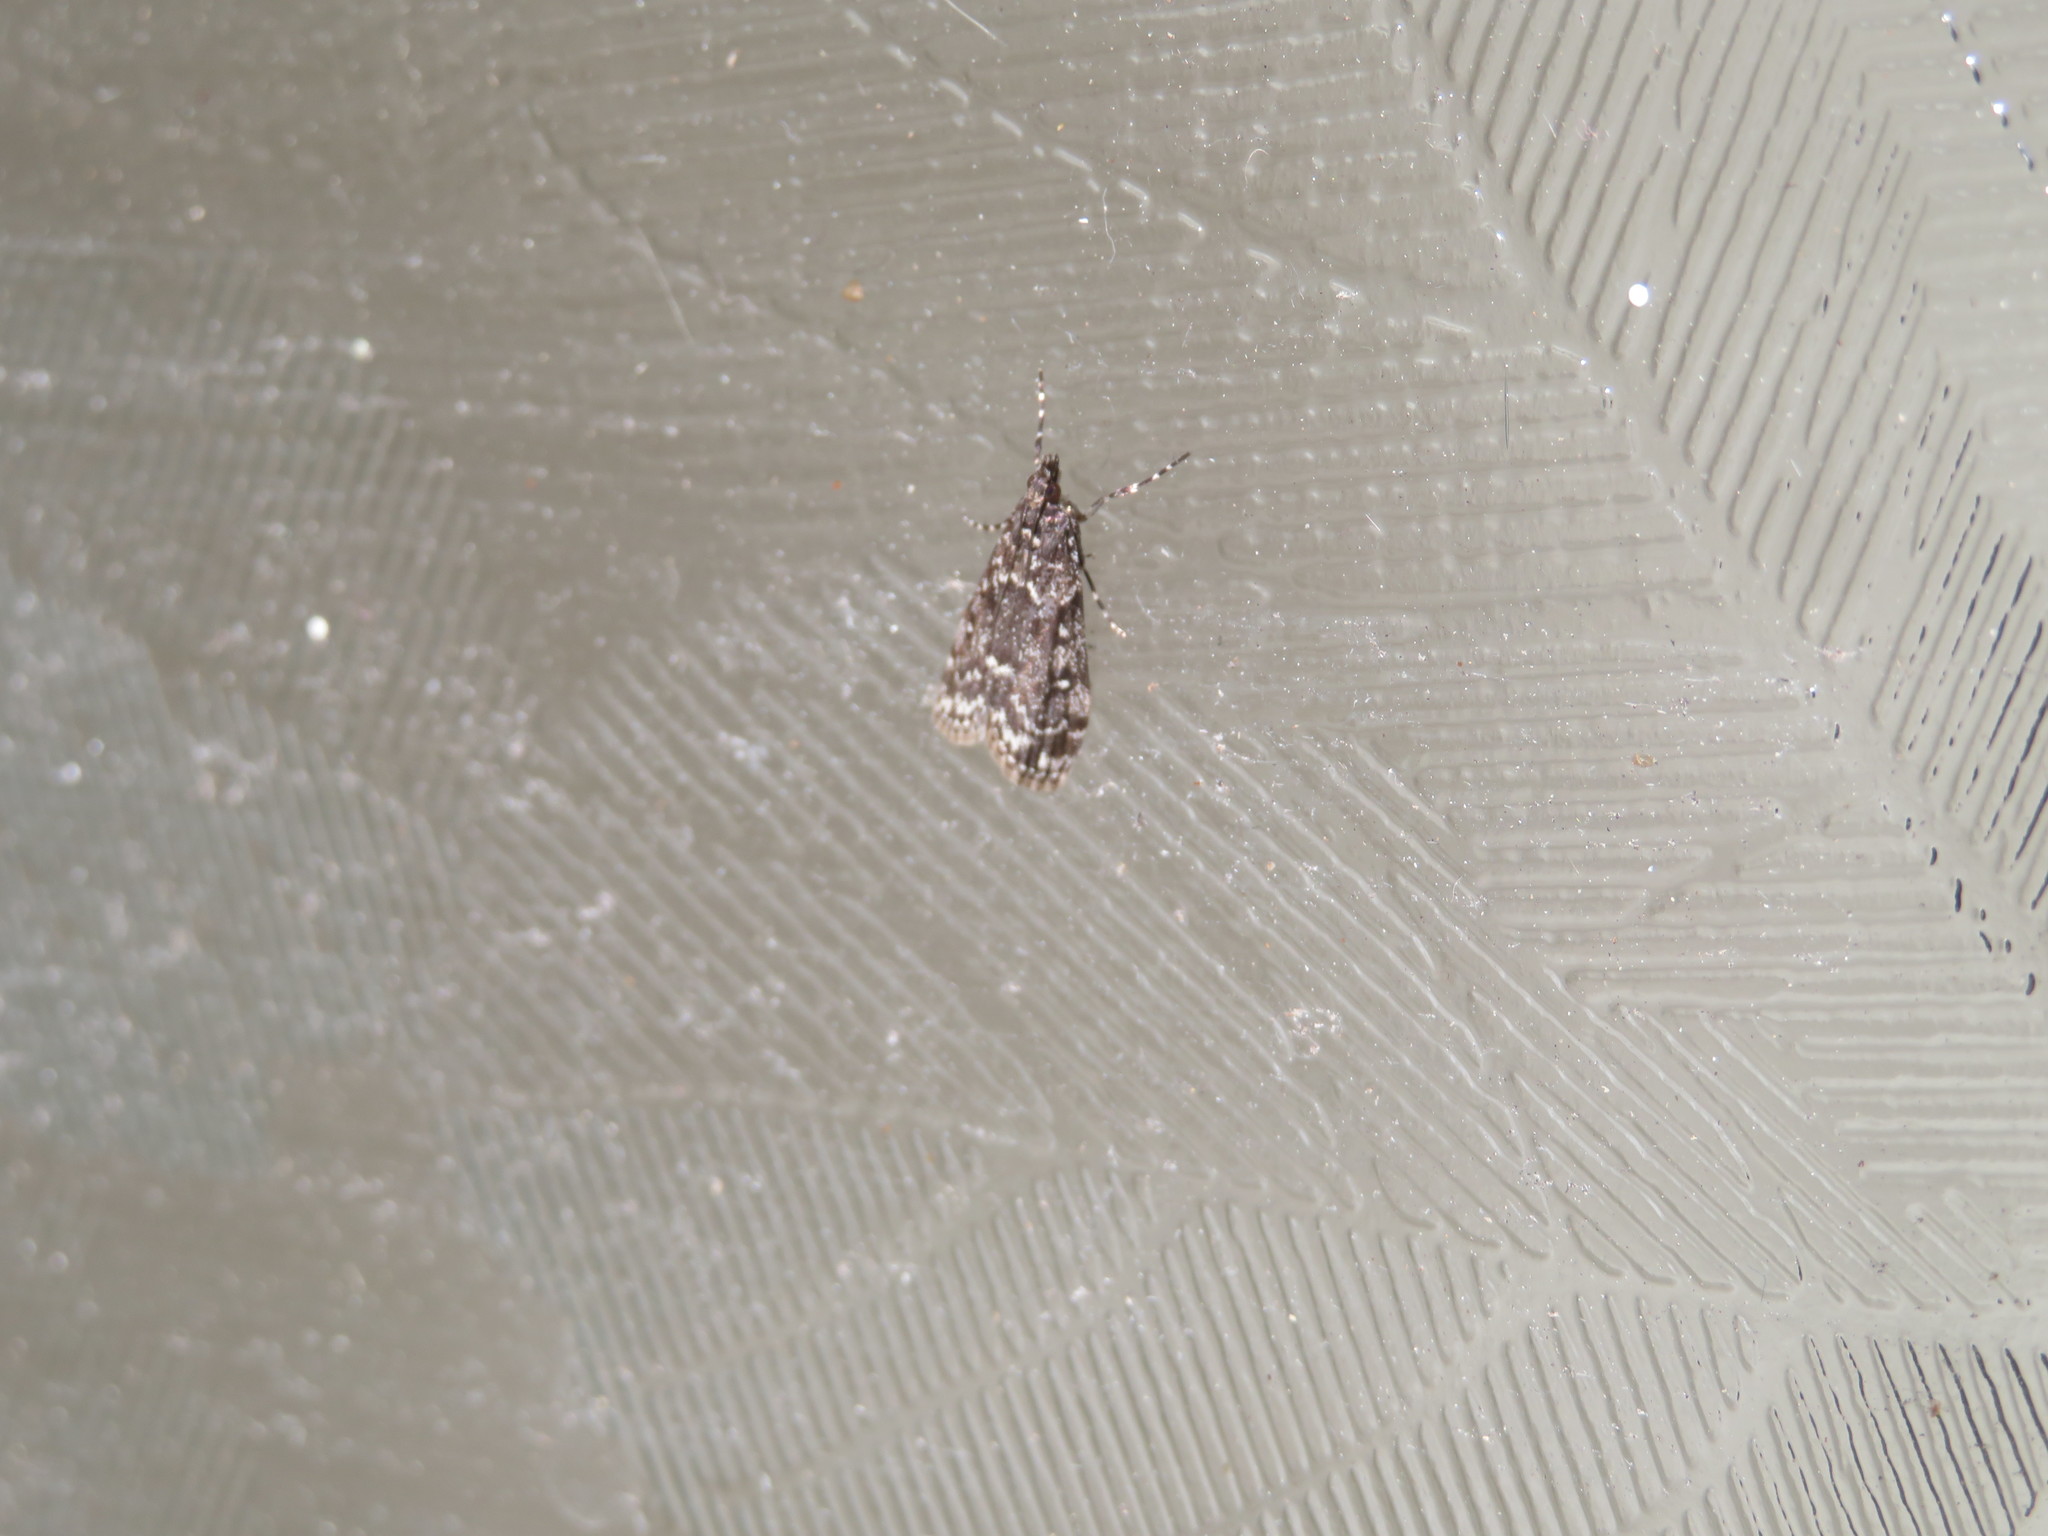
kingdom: Animalia
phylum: Arthropoda
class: Insecta
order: Lepidoptera
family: Crambidae
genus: Eudonia
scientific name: Eudonia philerga
